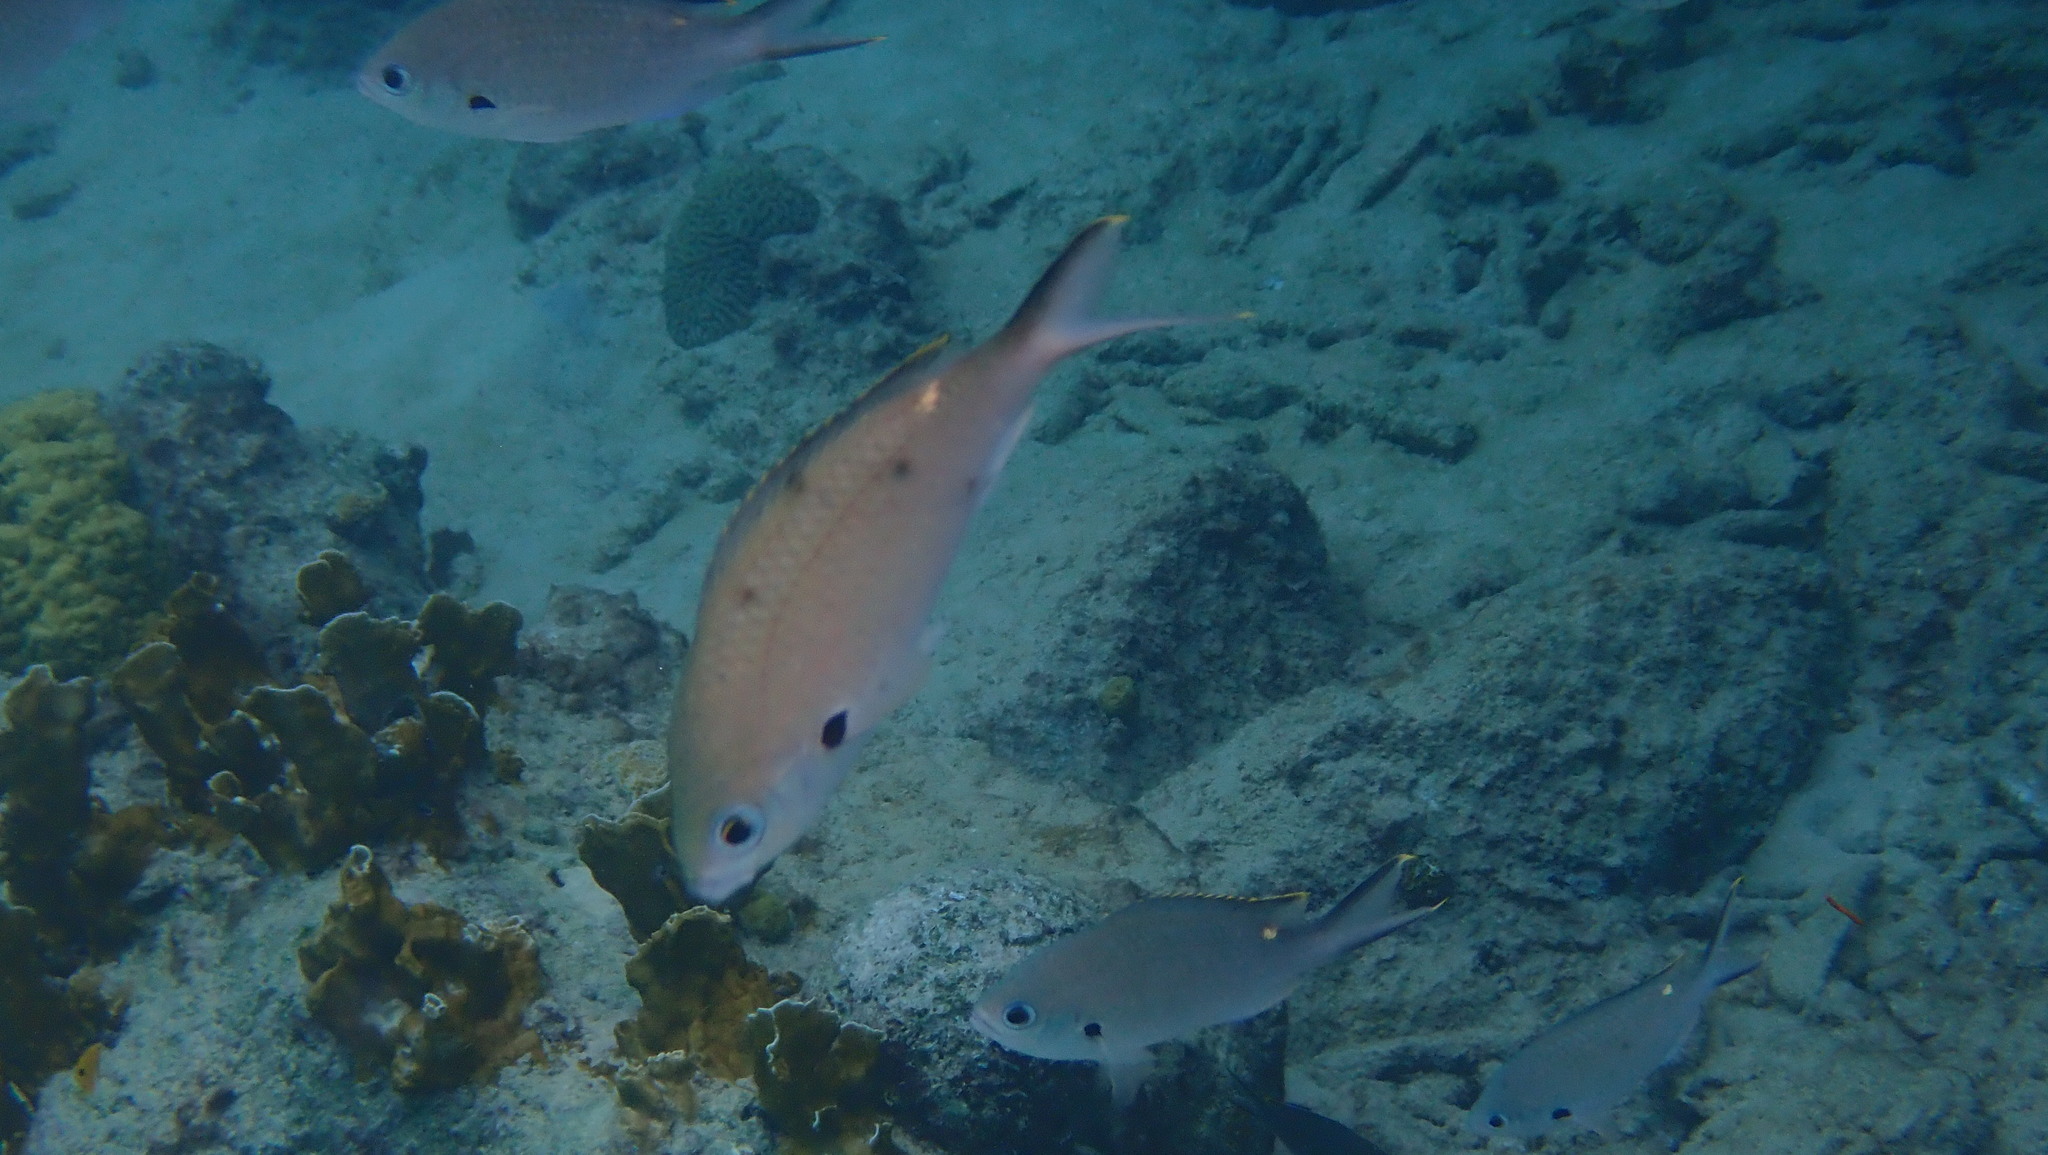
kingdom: Animalia
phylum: Chordata
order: Perciformes
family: Pomacentridae
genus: Chromis
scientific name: Chromis multilineata
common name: Brown chromis
